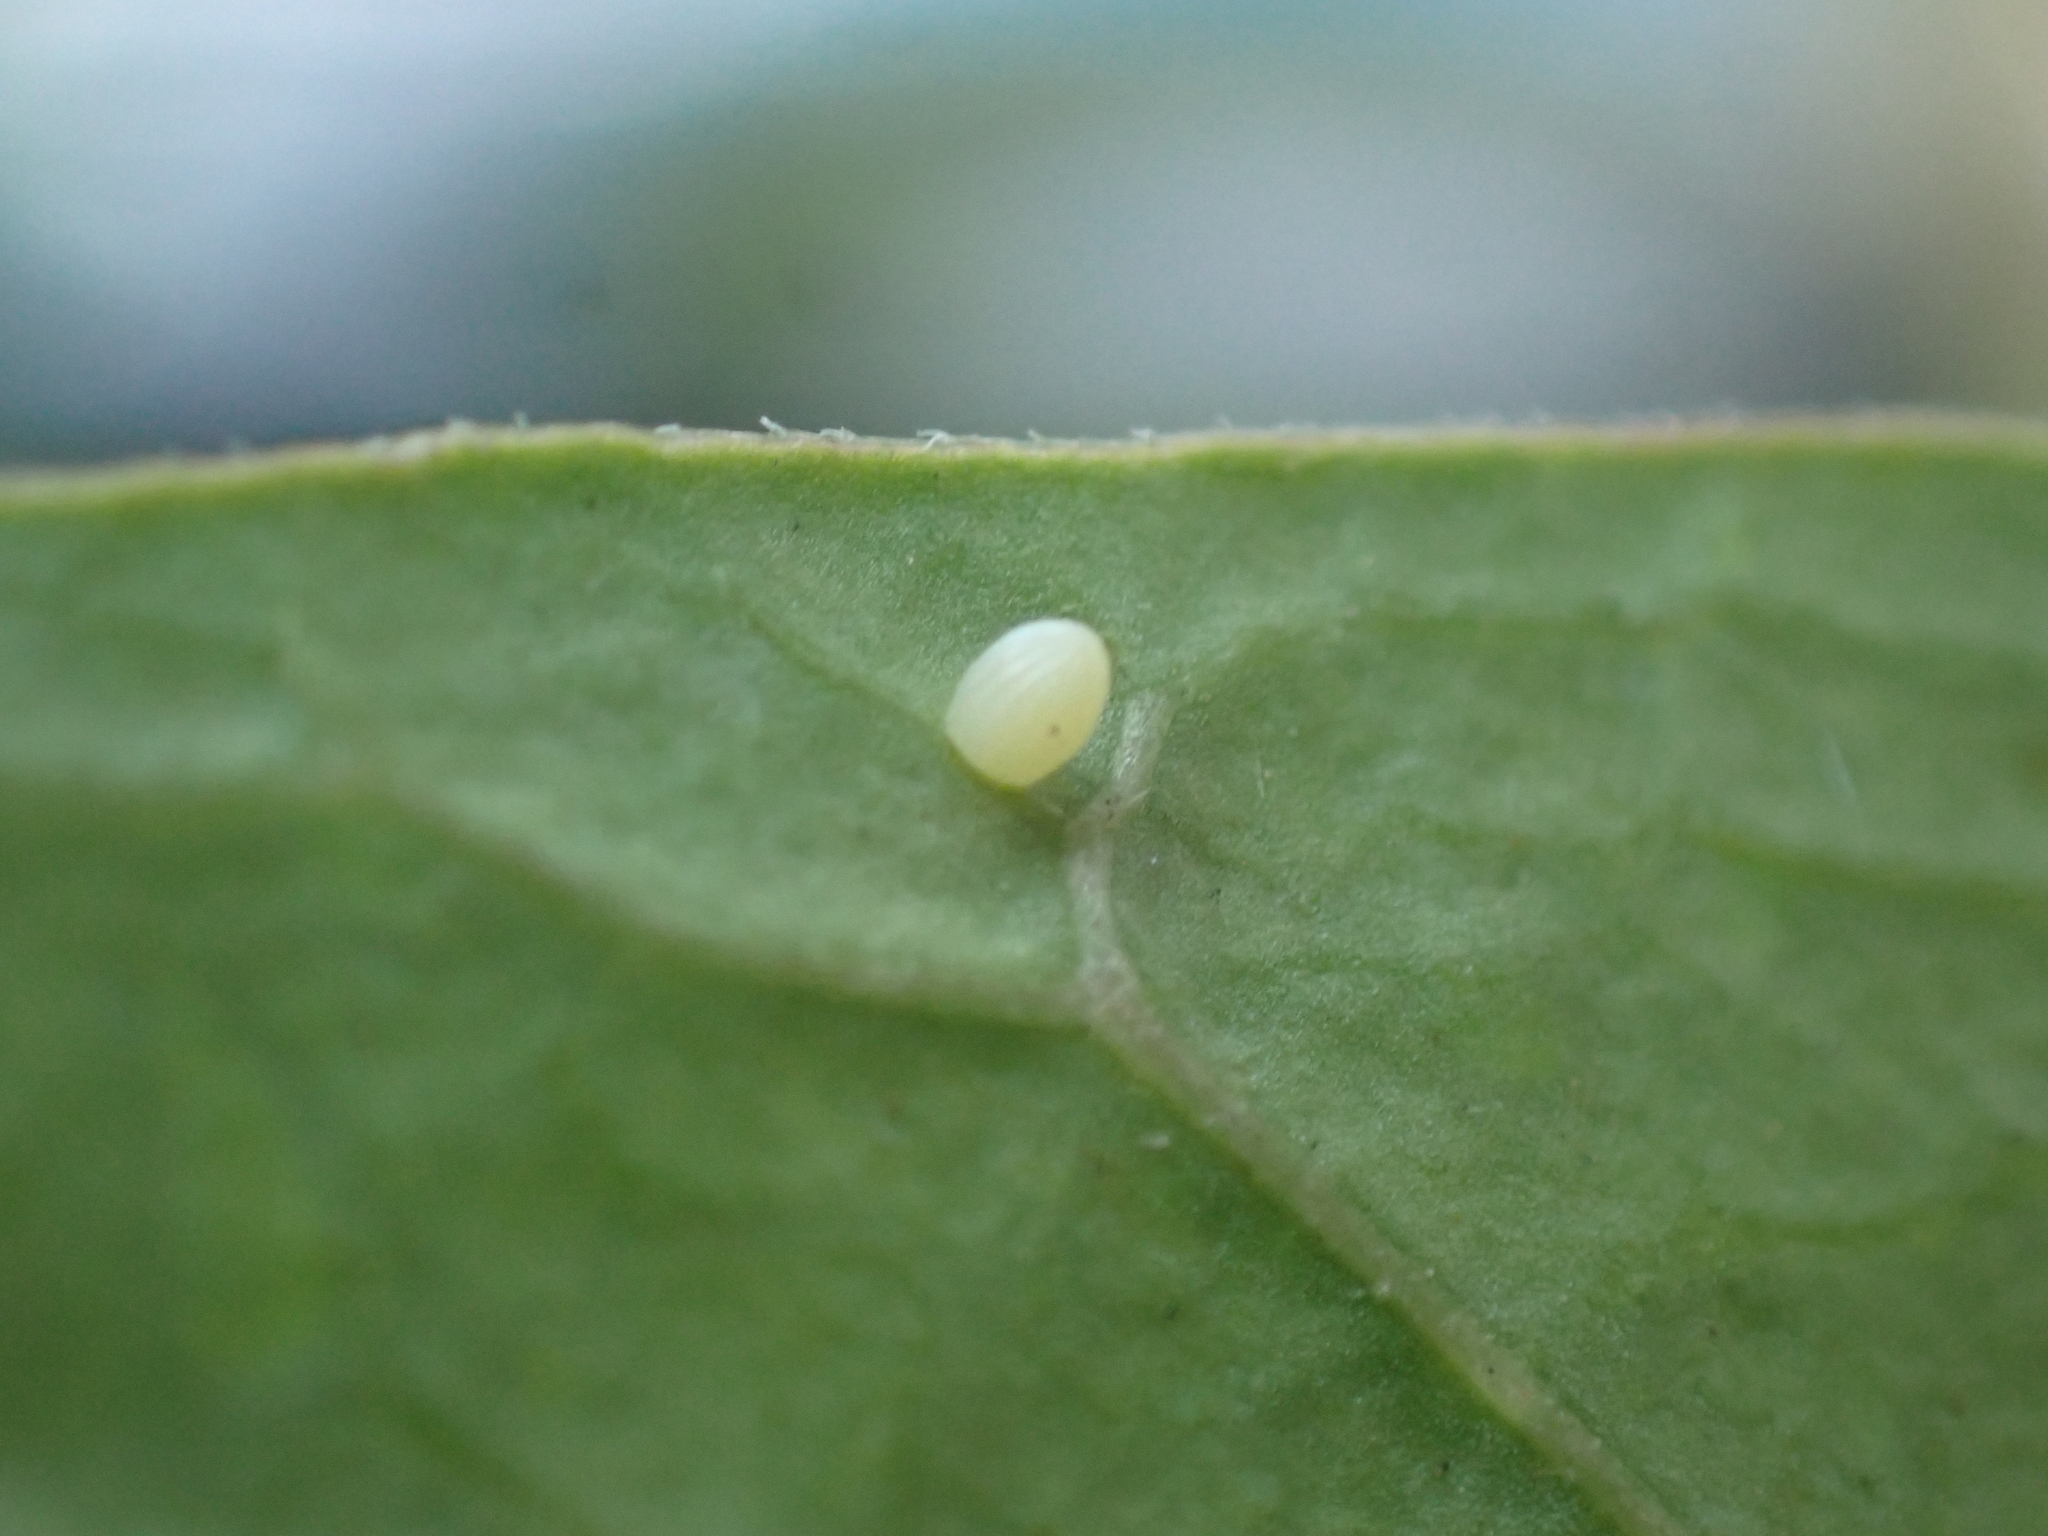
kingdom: Animalia
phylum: Arthropoda
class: Insecta
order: Lepidoptera
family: Nymphalidae
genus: Danaus
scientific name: Danaus plexippus
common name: Monarch
